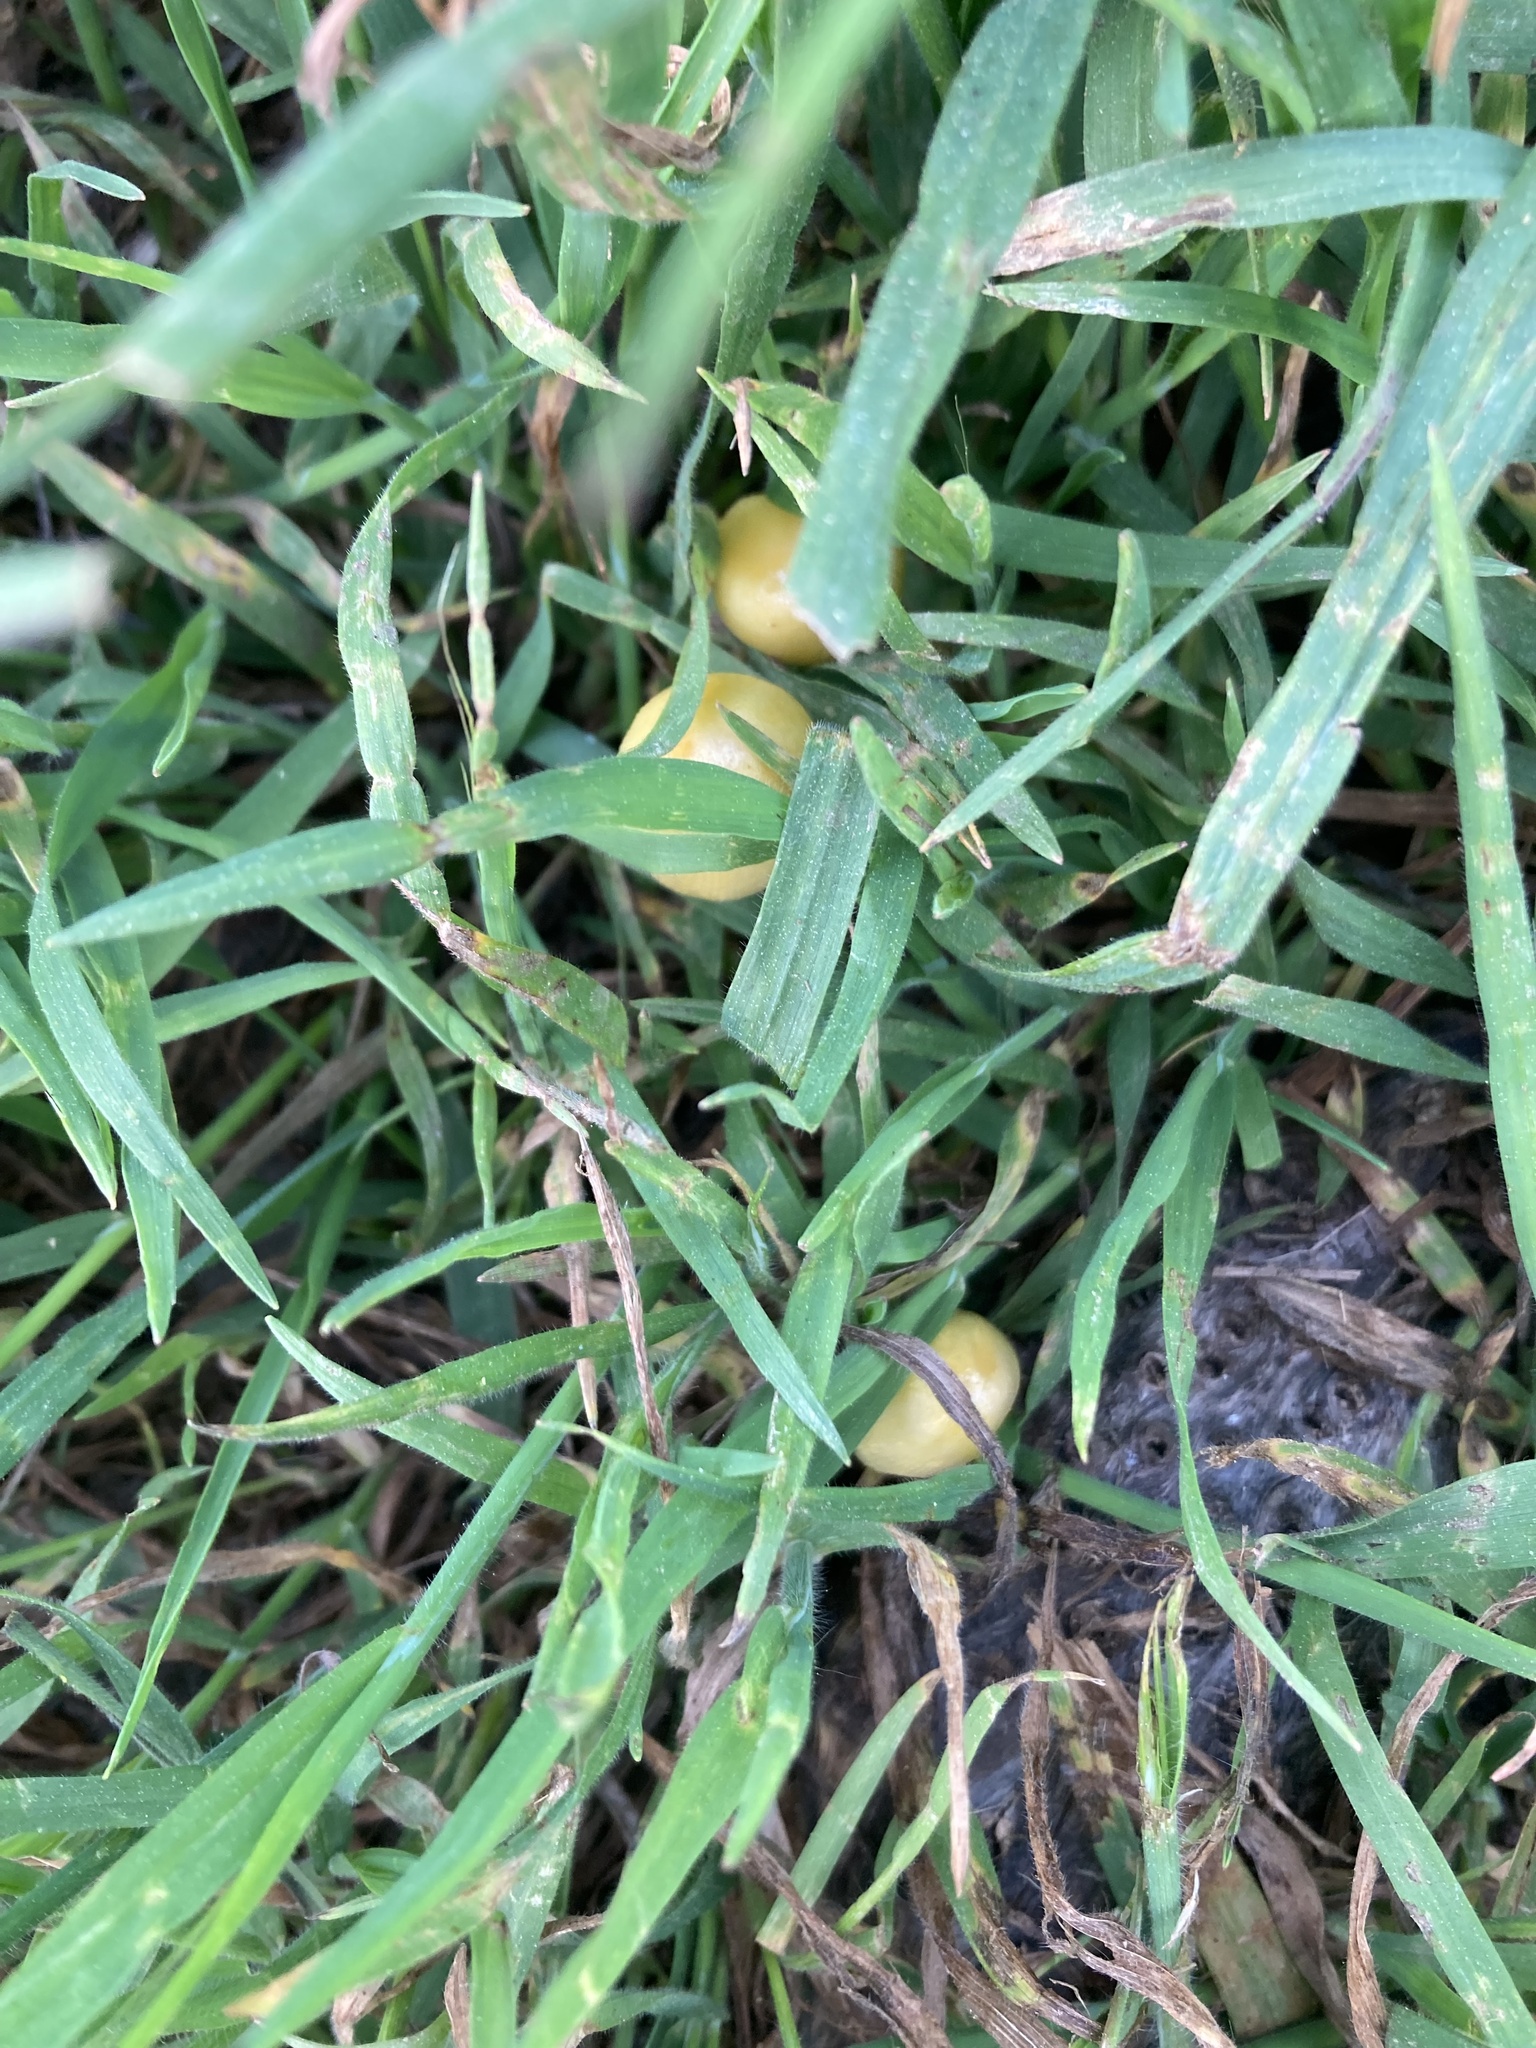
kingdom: Fungi
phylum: Basidiomycota
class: Agaricomycetes
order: Agaricales
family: Bolbitiaceae
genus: Bolbitius
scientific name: Bolbitius titubans
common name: Yellow fieldcap
